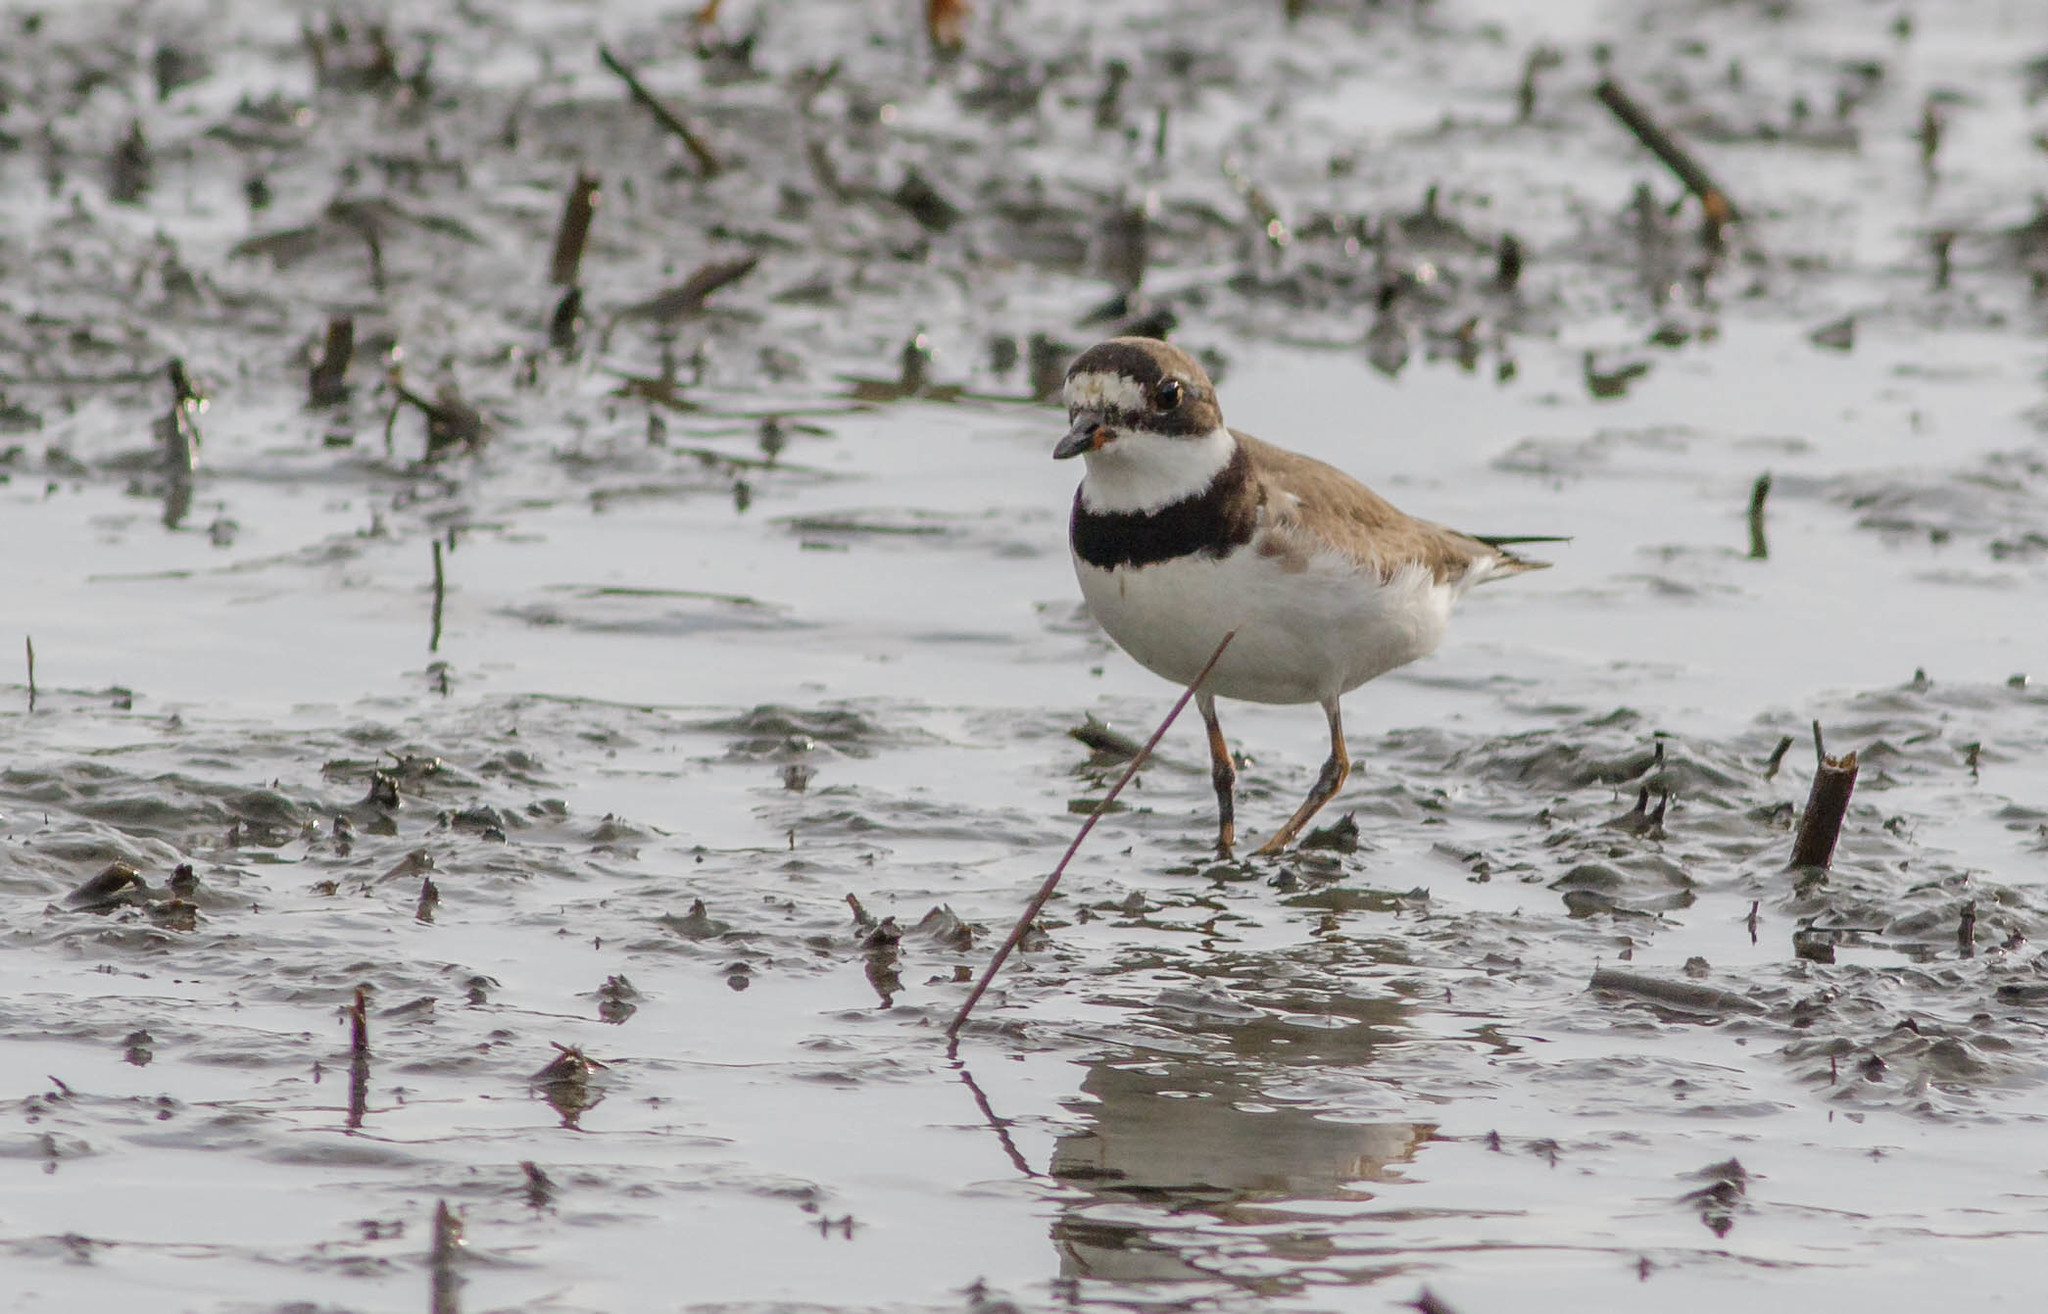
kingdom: Animalia
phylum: Chordata
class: Aves
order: Charadriiformes
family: Charadriidae
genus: Charadrius
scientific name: Charadrius semipalmatus
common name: Semipalmated plover
